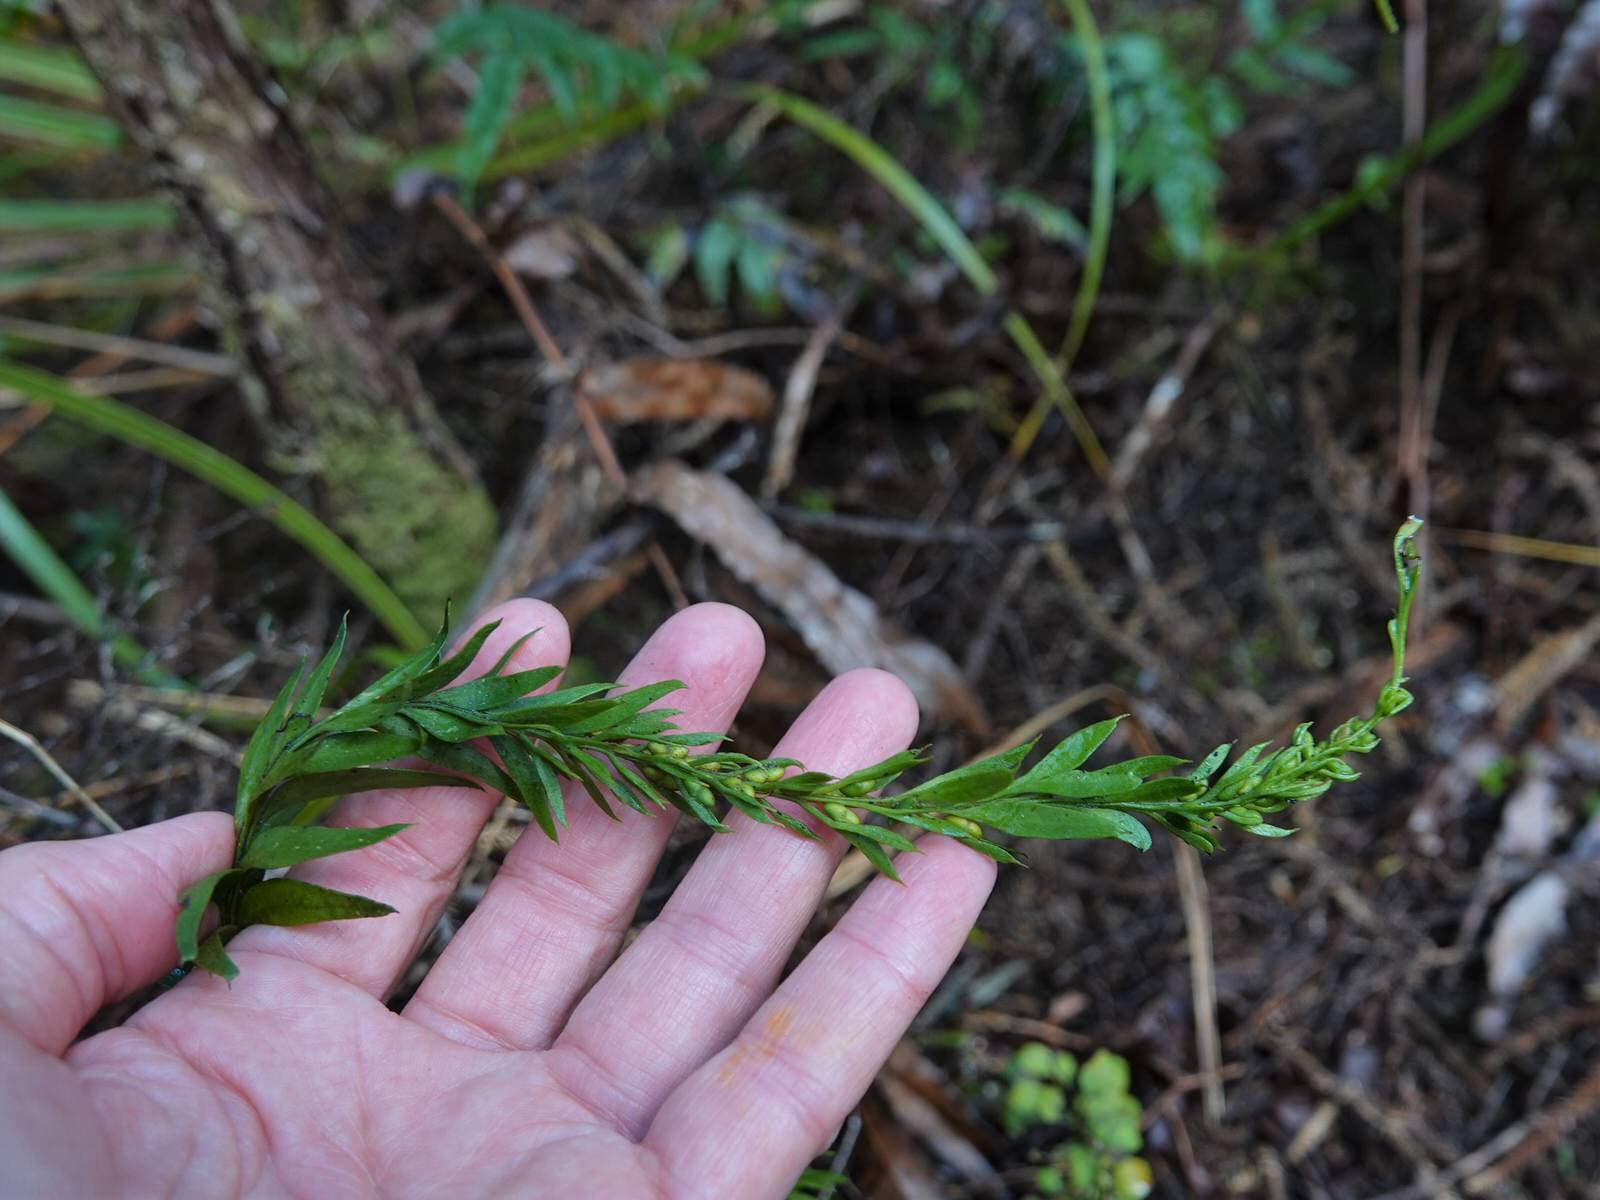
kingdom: Plantae
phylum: Tracheophyta
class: Polypodiopsida
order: Psilotales
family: Psilotaceae
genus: Tmesipteris
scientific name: Tmesipteris elongata
